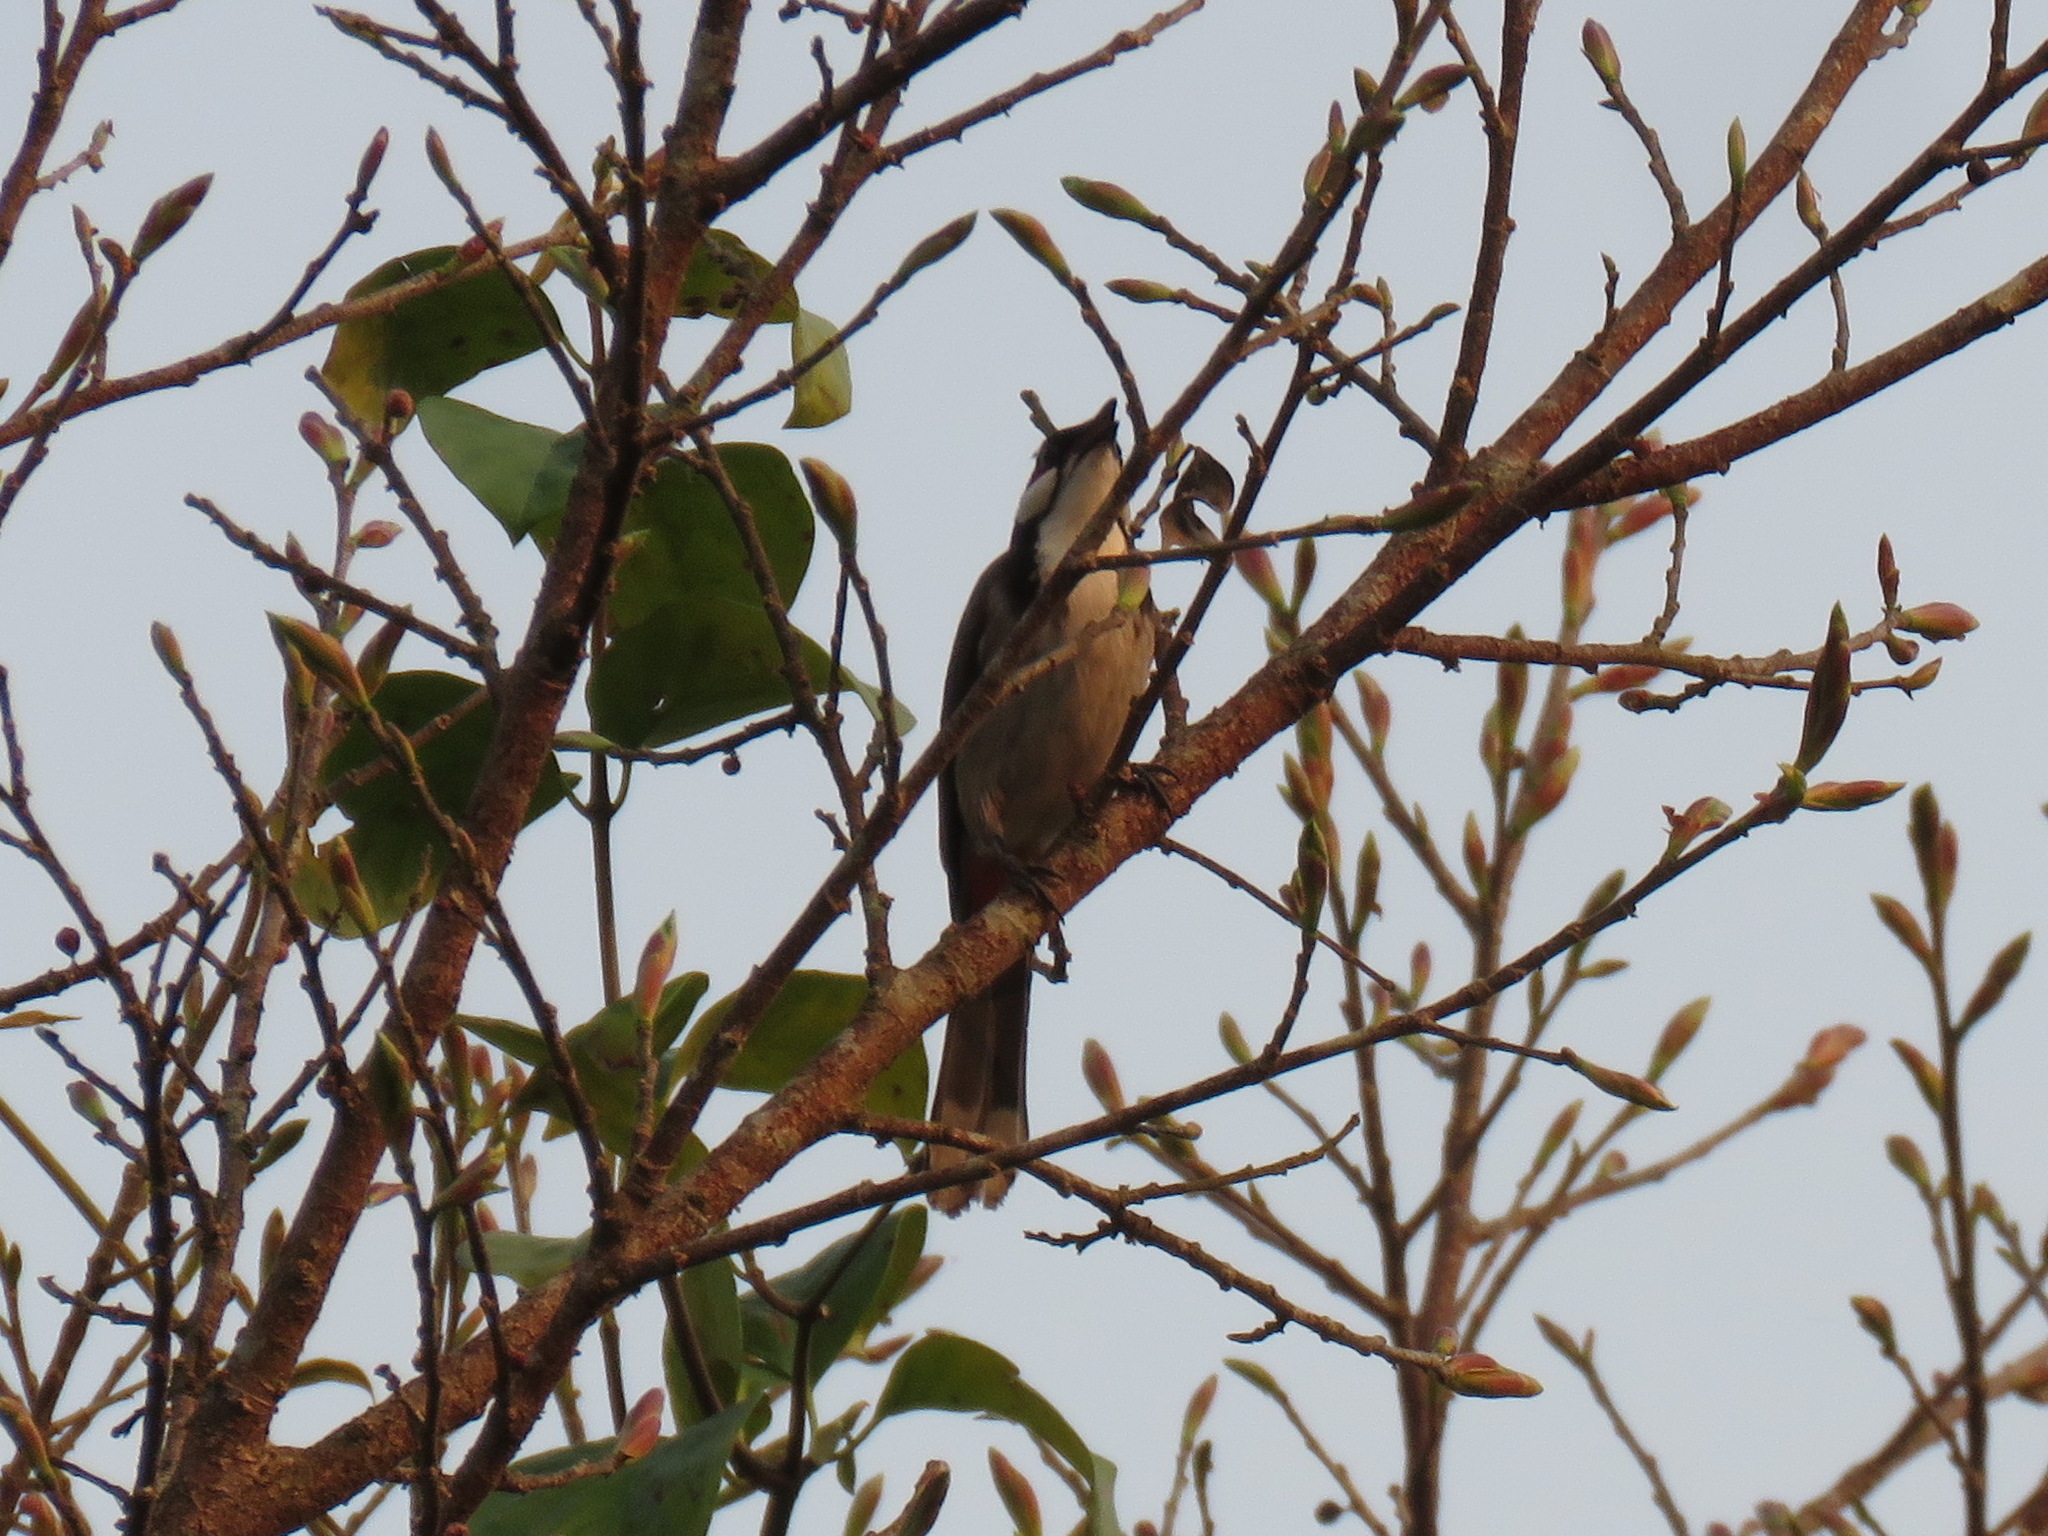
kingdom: Animalia
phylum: Chordata
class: Aves
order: Passeriformes
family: Pycnonotidae
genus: Pycnonotus
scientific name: Pycnonotus jocosus
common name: Red-whiskered bulbul
